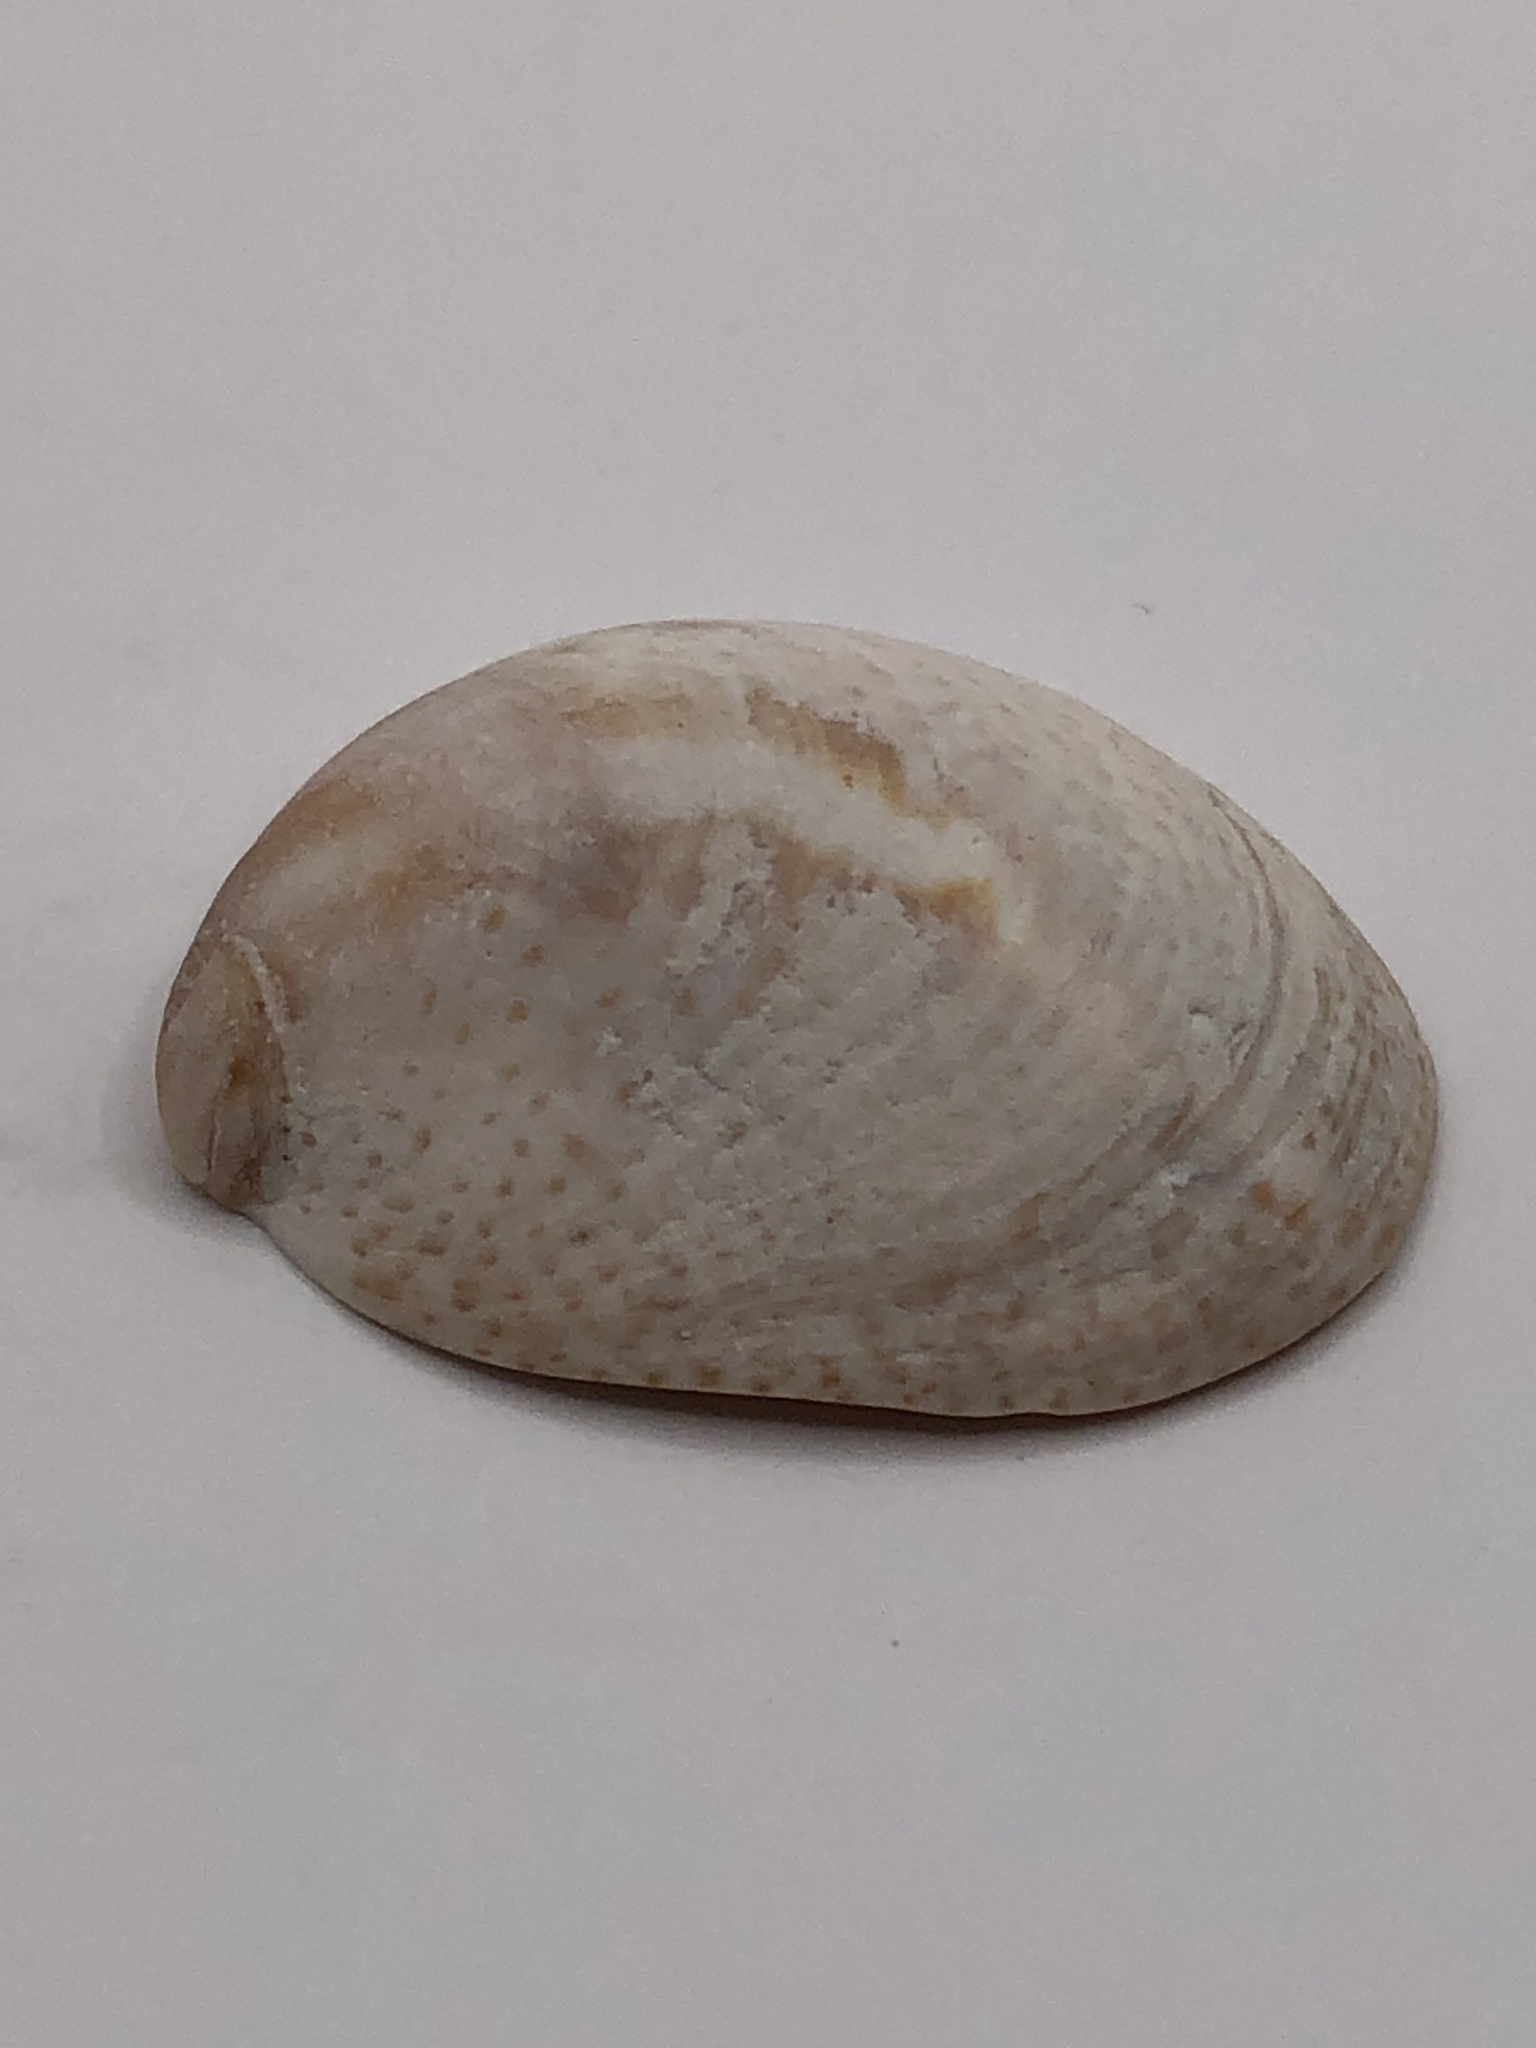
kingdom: Animalia
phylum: Mollusca
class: Gastropoda
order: Littorinimorpha
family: Calyptraeidae
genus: Crepidula
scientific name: Crepidula fornicata
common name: Slipper limpet
